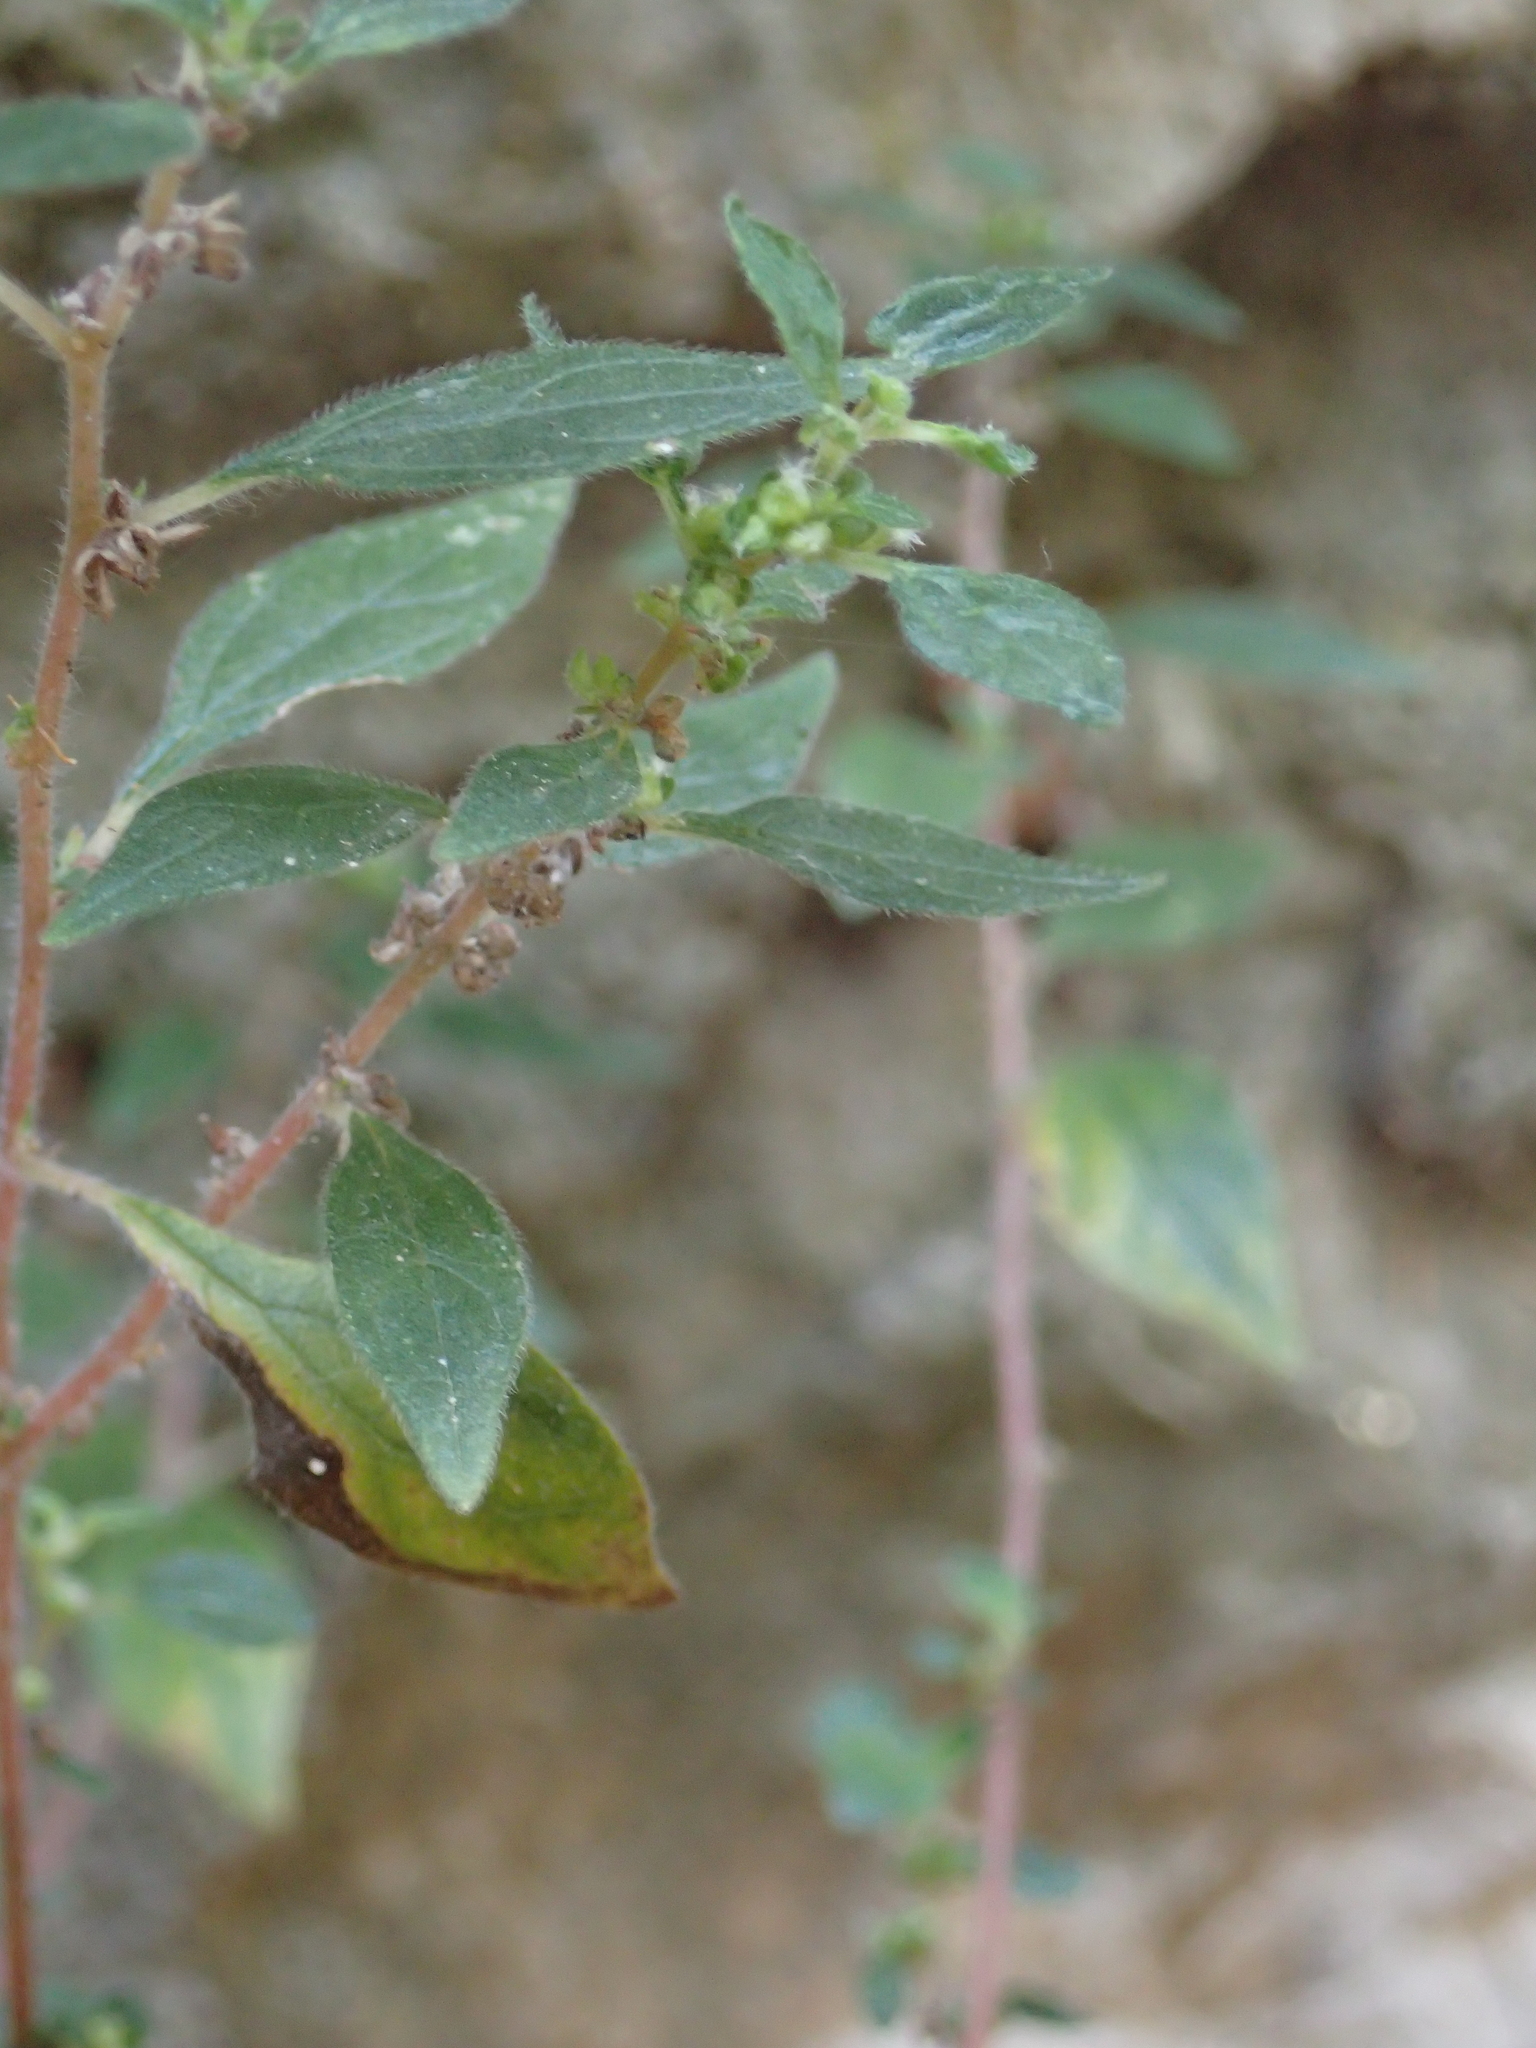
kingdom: Plantae
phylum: Tracheophyta
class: Magnoliopsida
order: Rosales
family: Urticaceae
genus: Parietaria
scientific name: Parietaria judaica
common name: Pellitory-of-the-wall
